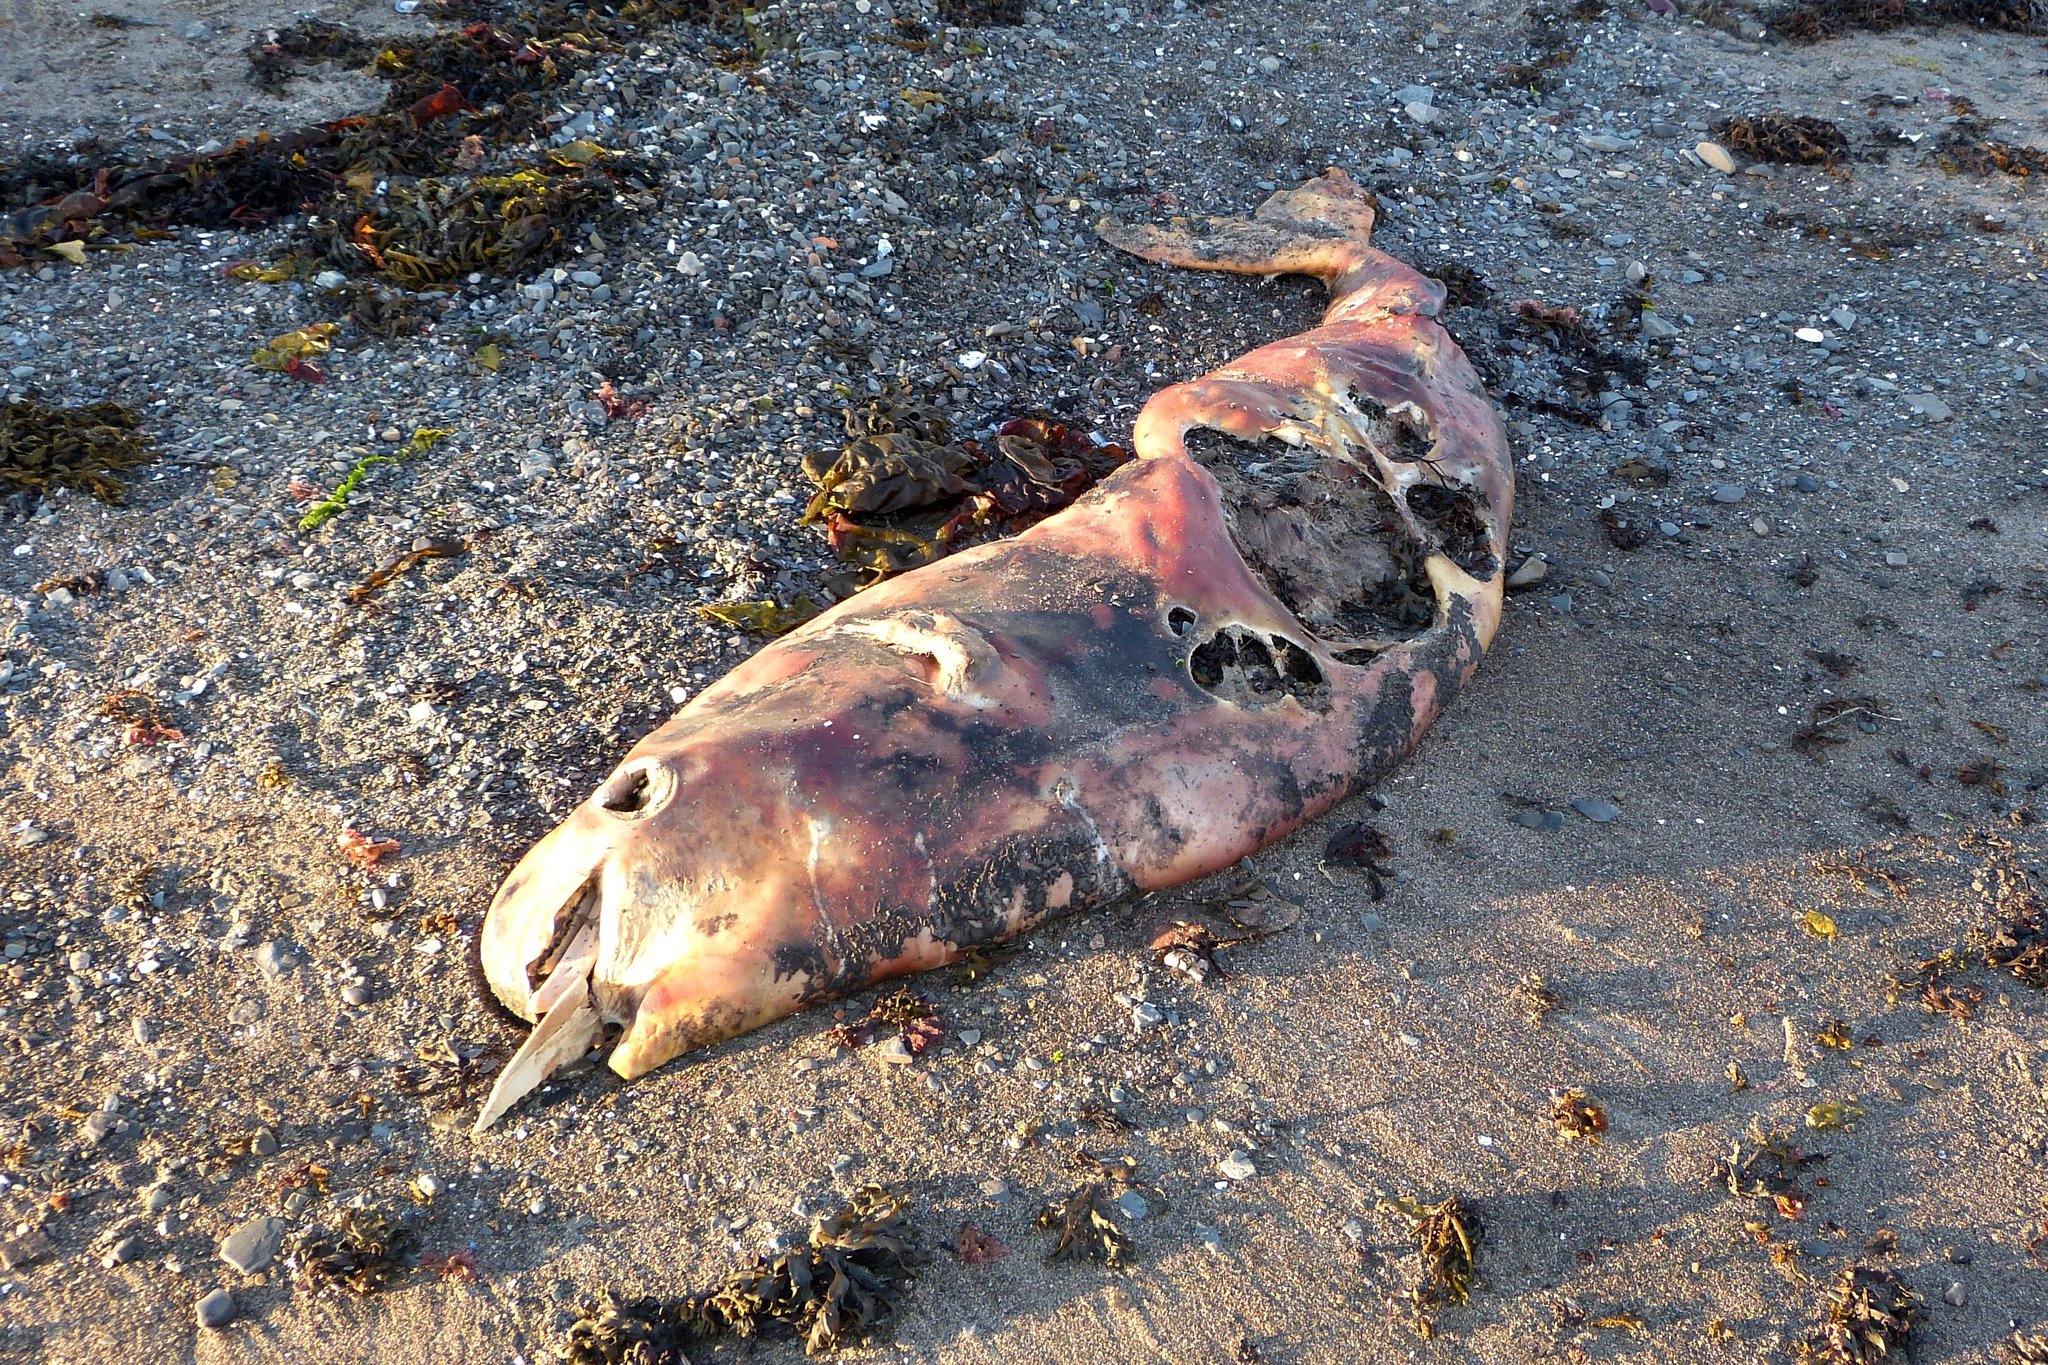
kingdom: Animalia
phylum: Chordata
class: Mammalia
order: Cetacea
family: Monodontidae
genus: Delphinapterus
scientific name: Delphinapterus leucas
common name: Beluga
